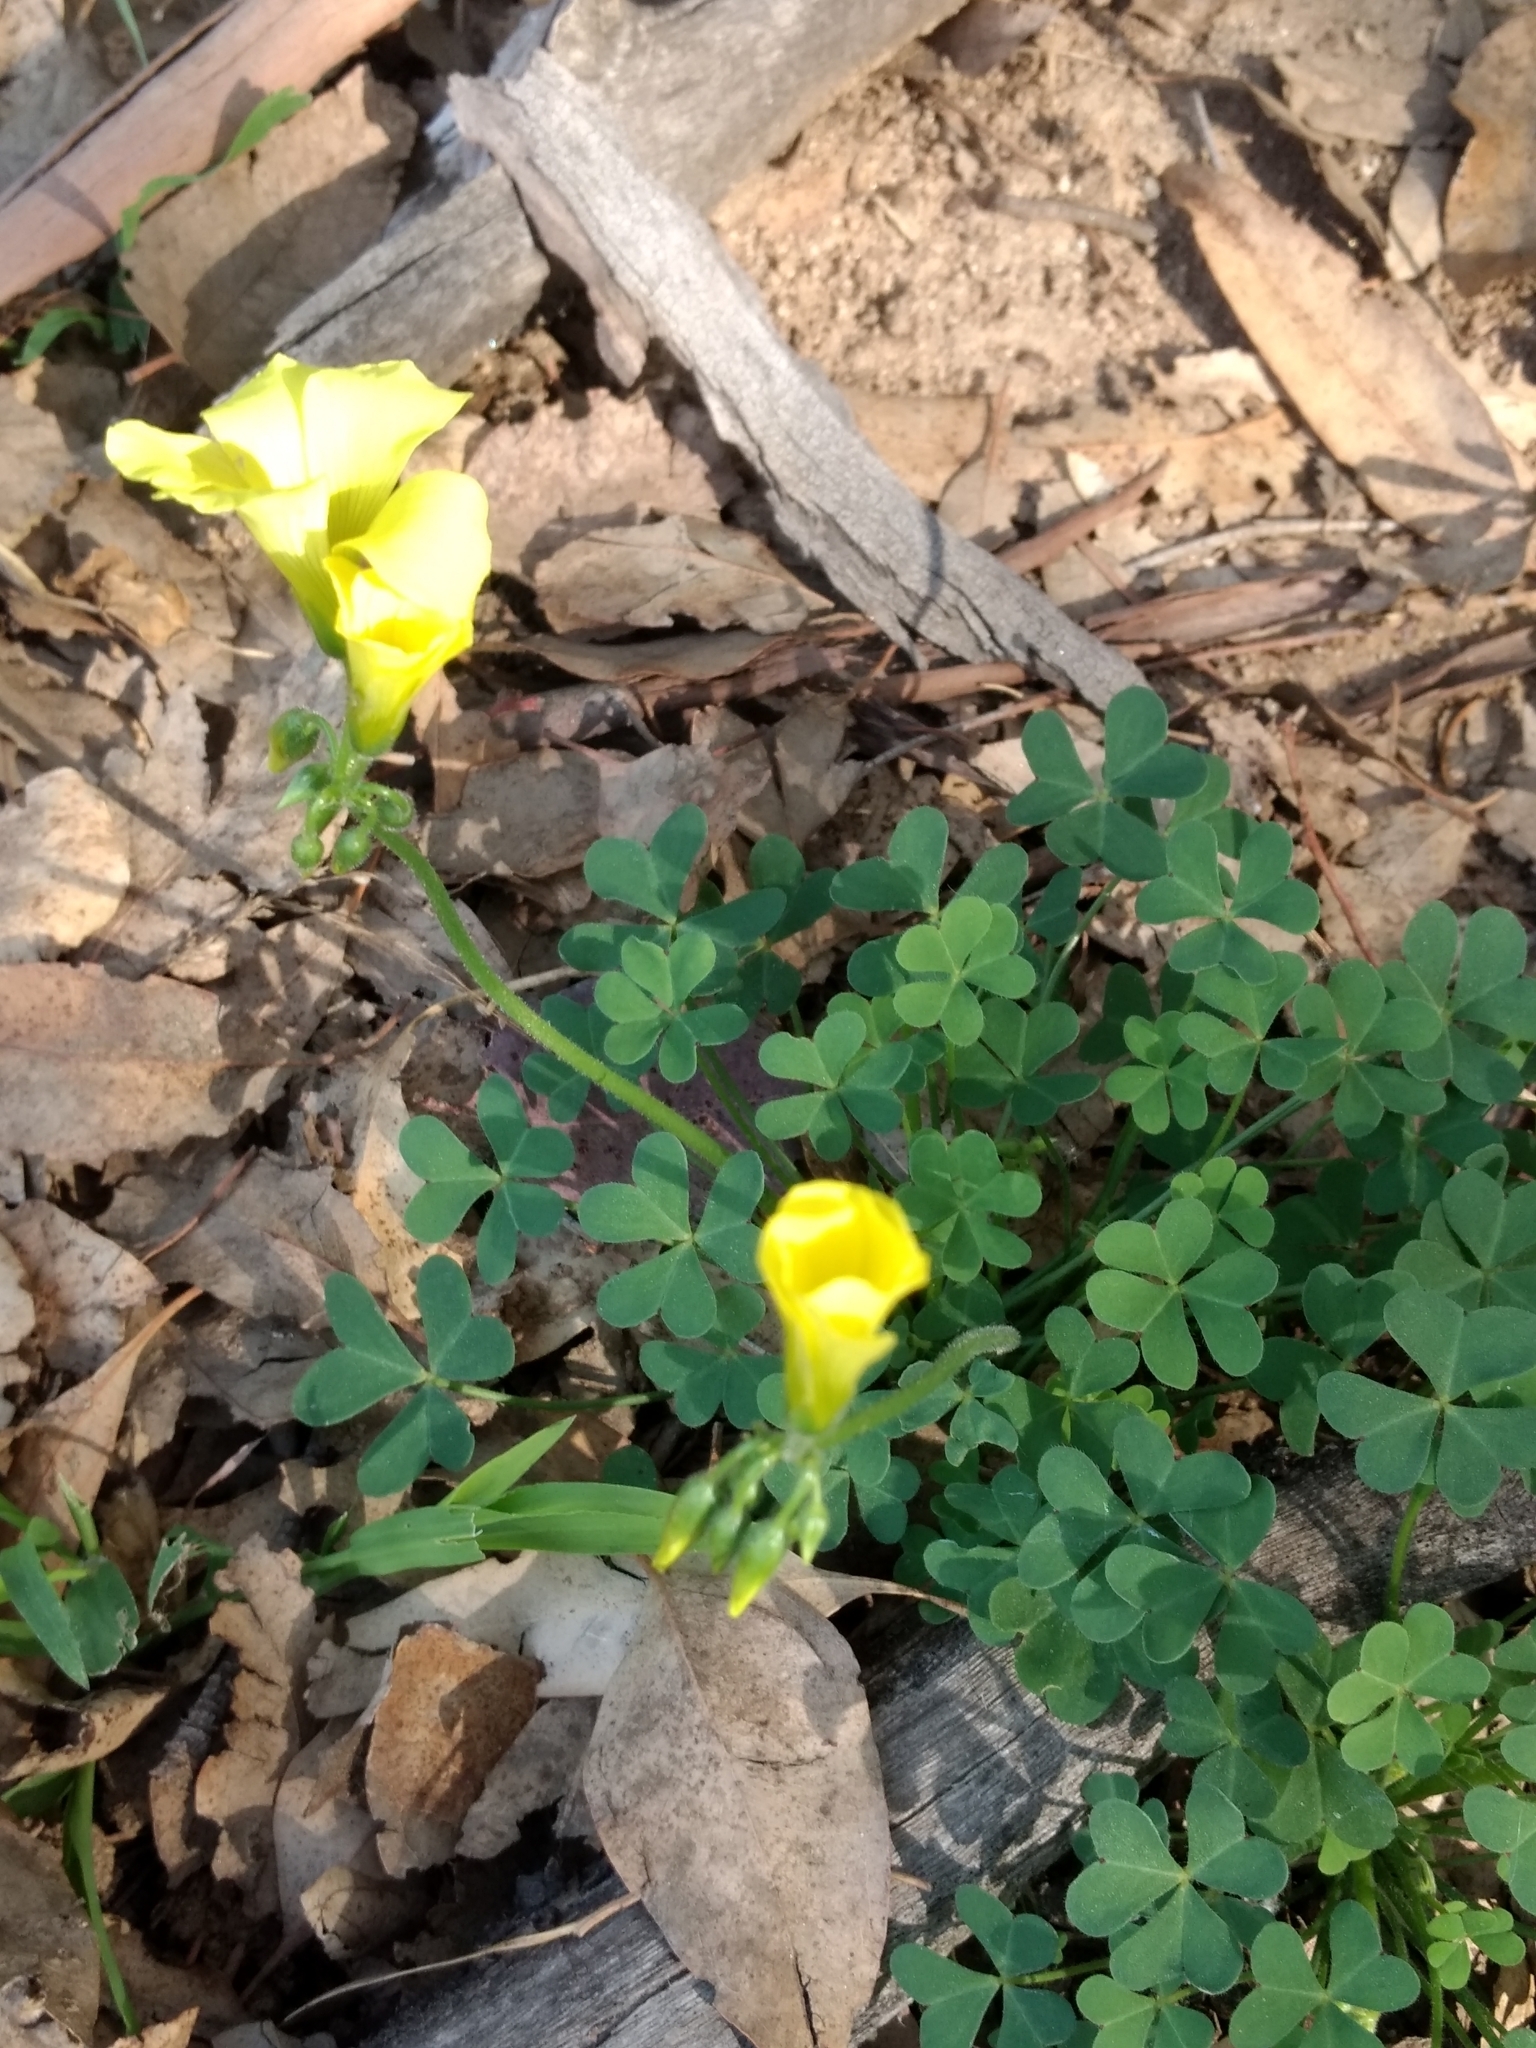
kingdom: Plantae
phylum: Tracheophyta
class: Magnoliopsida
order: Oxalidales
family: Oxalidaceae
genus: Oxalis
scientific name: Oxalis pes-caprae
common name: Bermuda-buttercup
